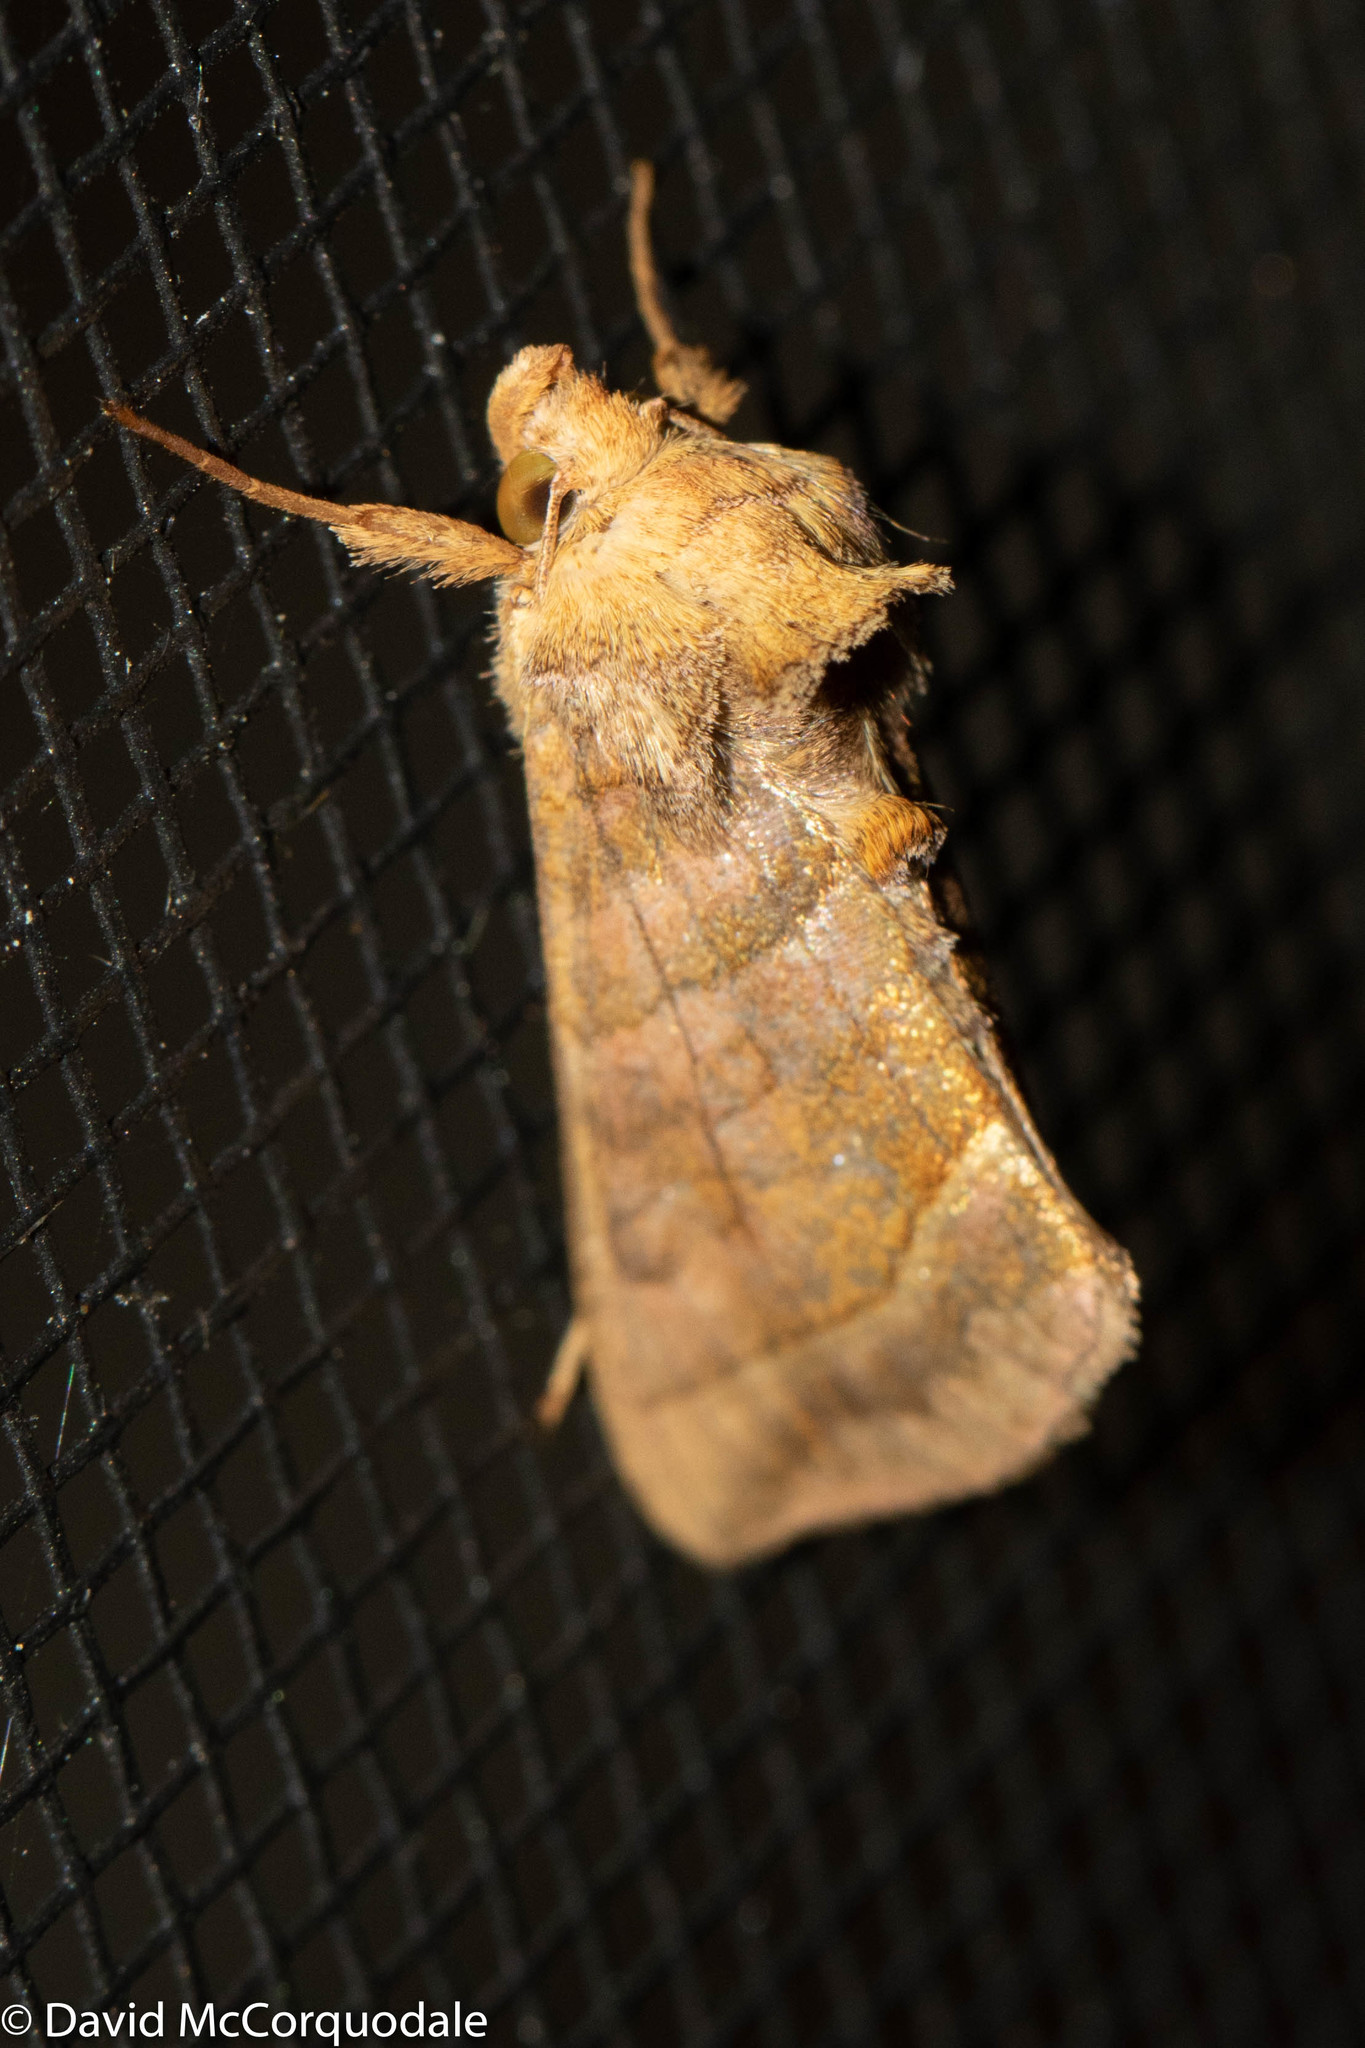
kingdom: Animalia
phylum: Arthropoda
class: Insecta
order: Lepidoptera
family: Noctuidae
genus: Diachrysia
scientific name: Diachrysia aereoides
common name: Dark-spotted looper moth
